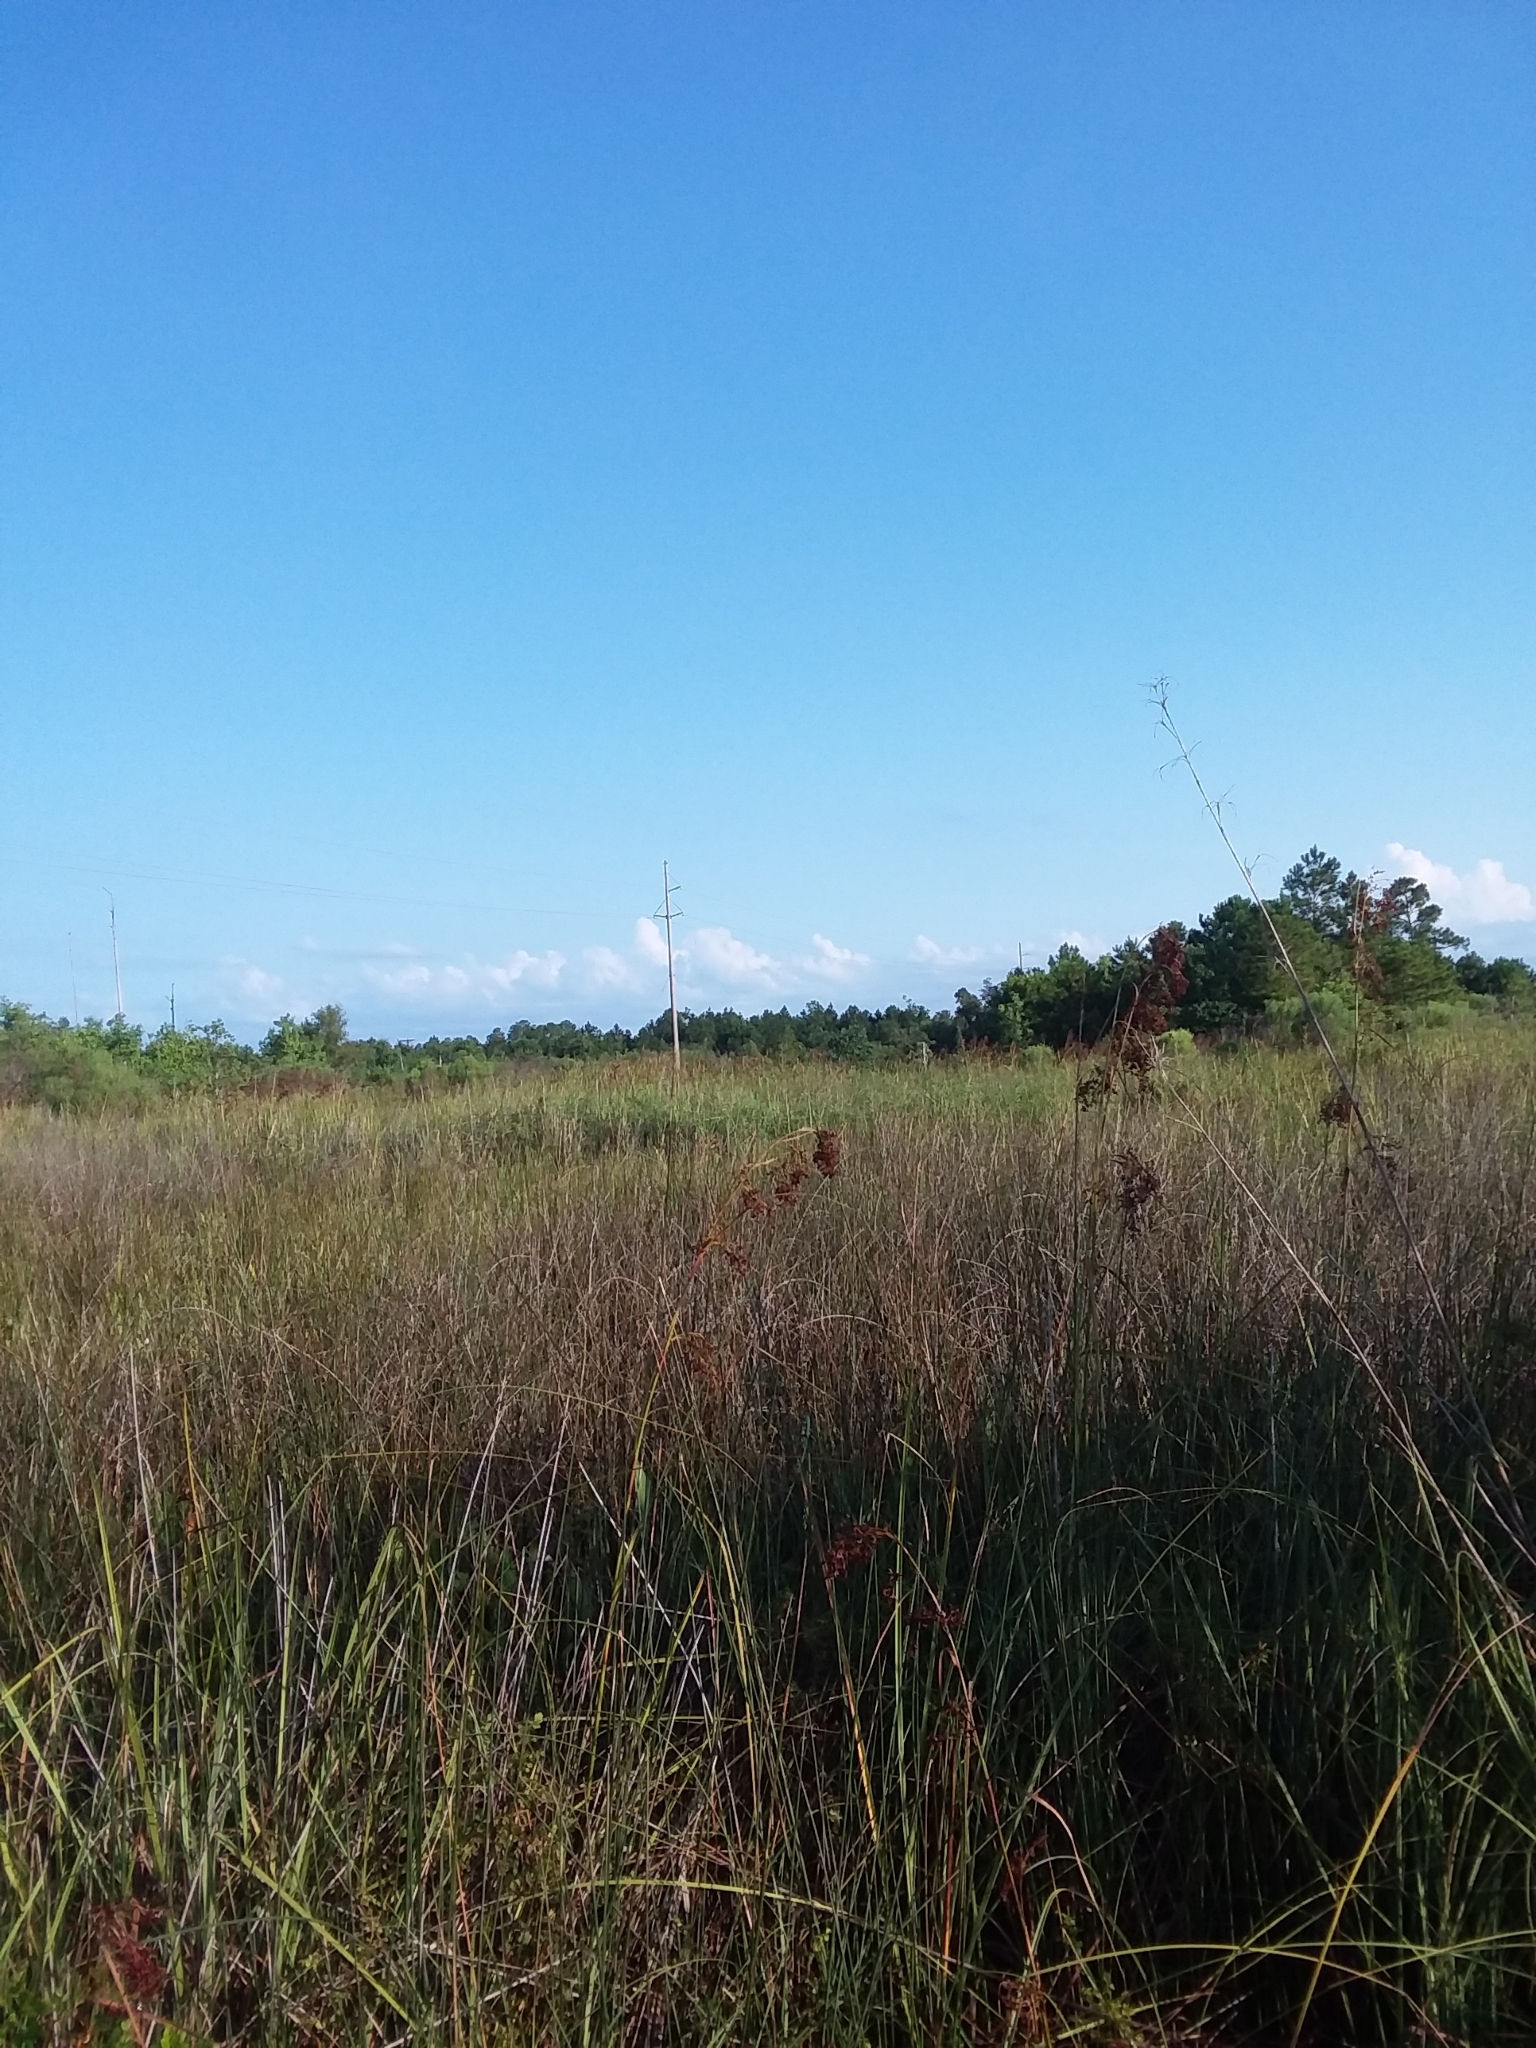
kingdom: Plantae
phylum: Tracheophyta
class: Liliopsida
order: Poales
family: Cyperaceae
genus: Cladium
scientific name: Cladium mariscus
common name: Great fen-sedge
